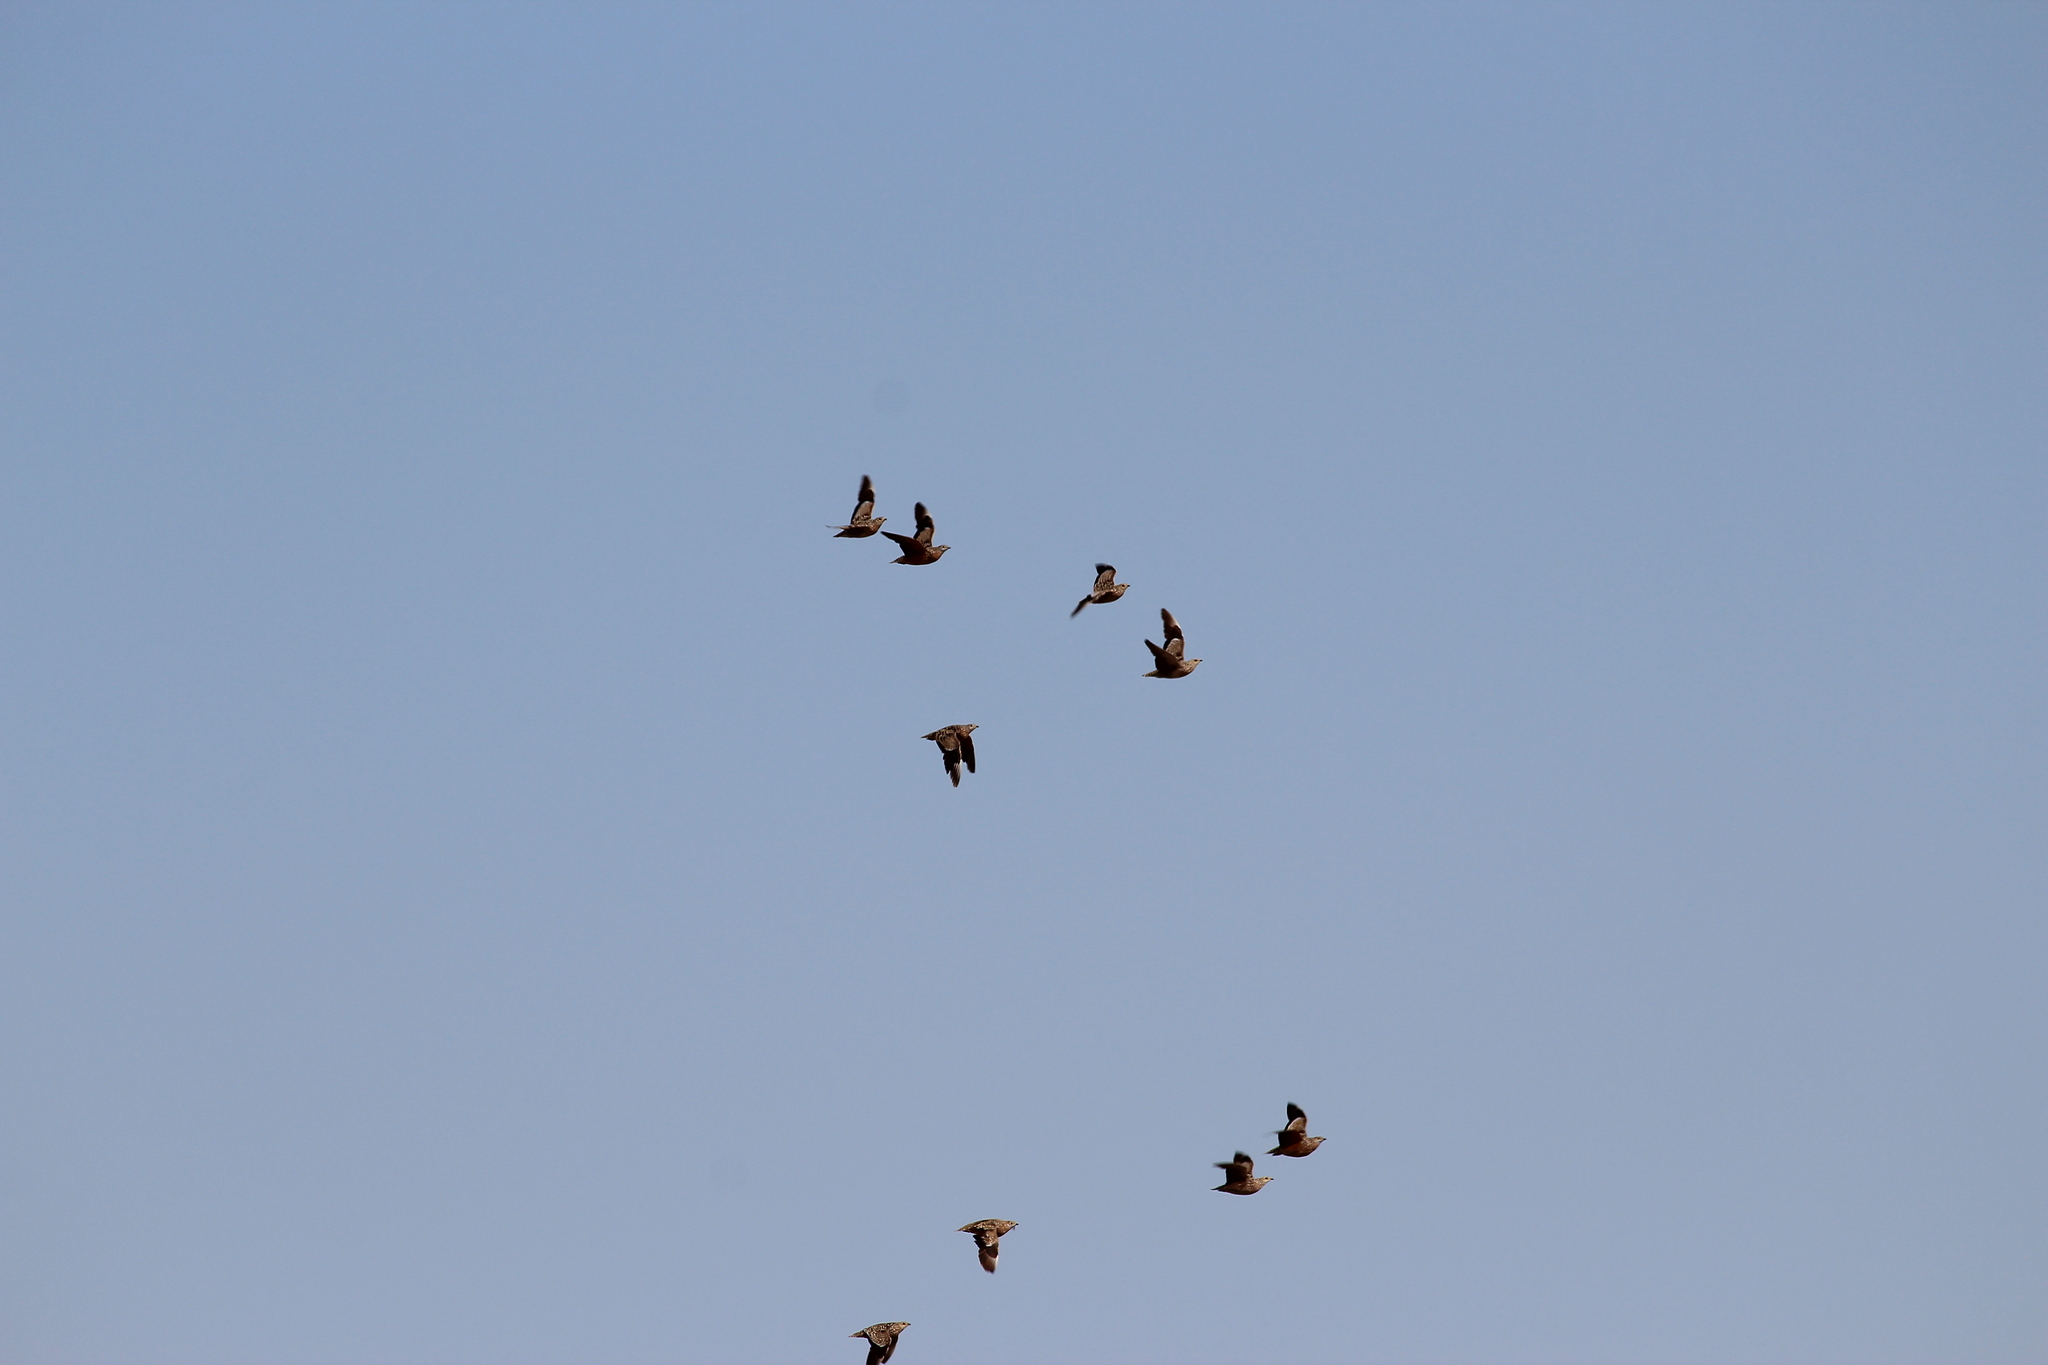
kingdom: Animalia
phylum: Chordata
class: Aves
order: Pteroclidiformes
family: Pteroclididae
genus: Pterocles
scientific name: Pterocles burchelli
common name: Burchell's sandgrouse
